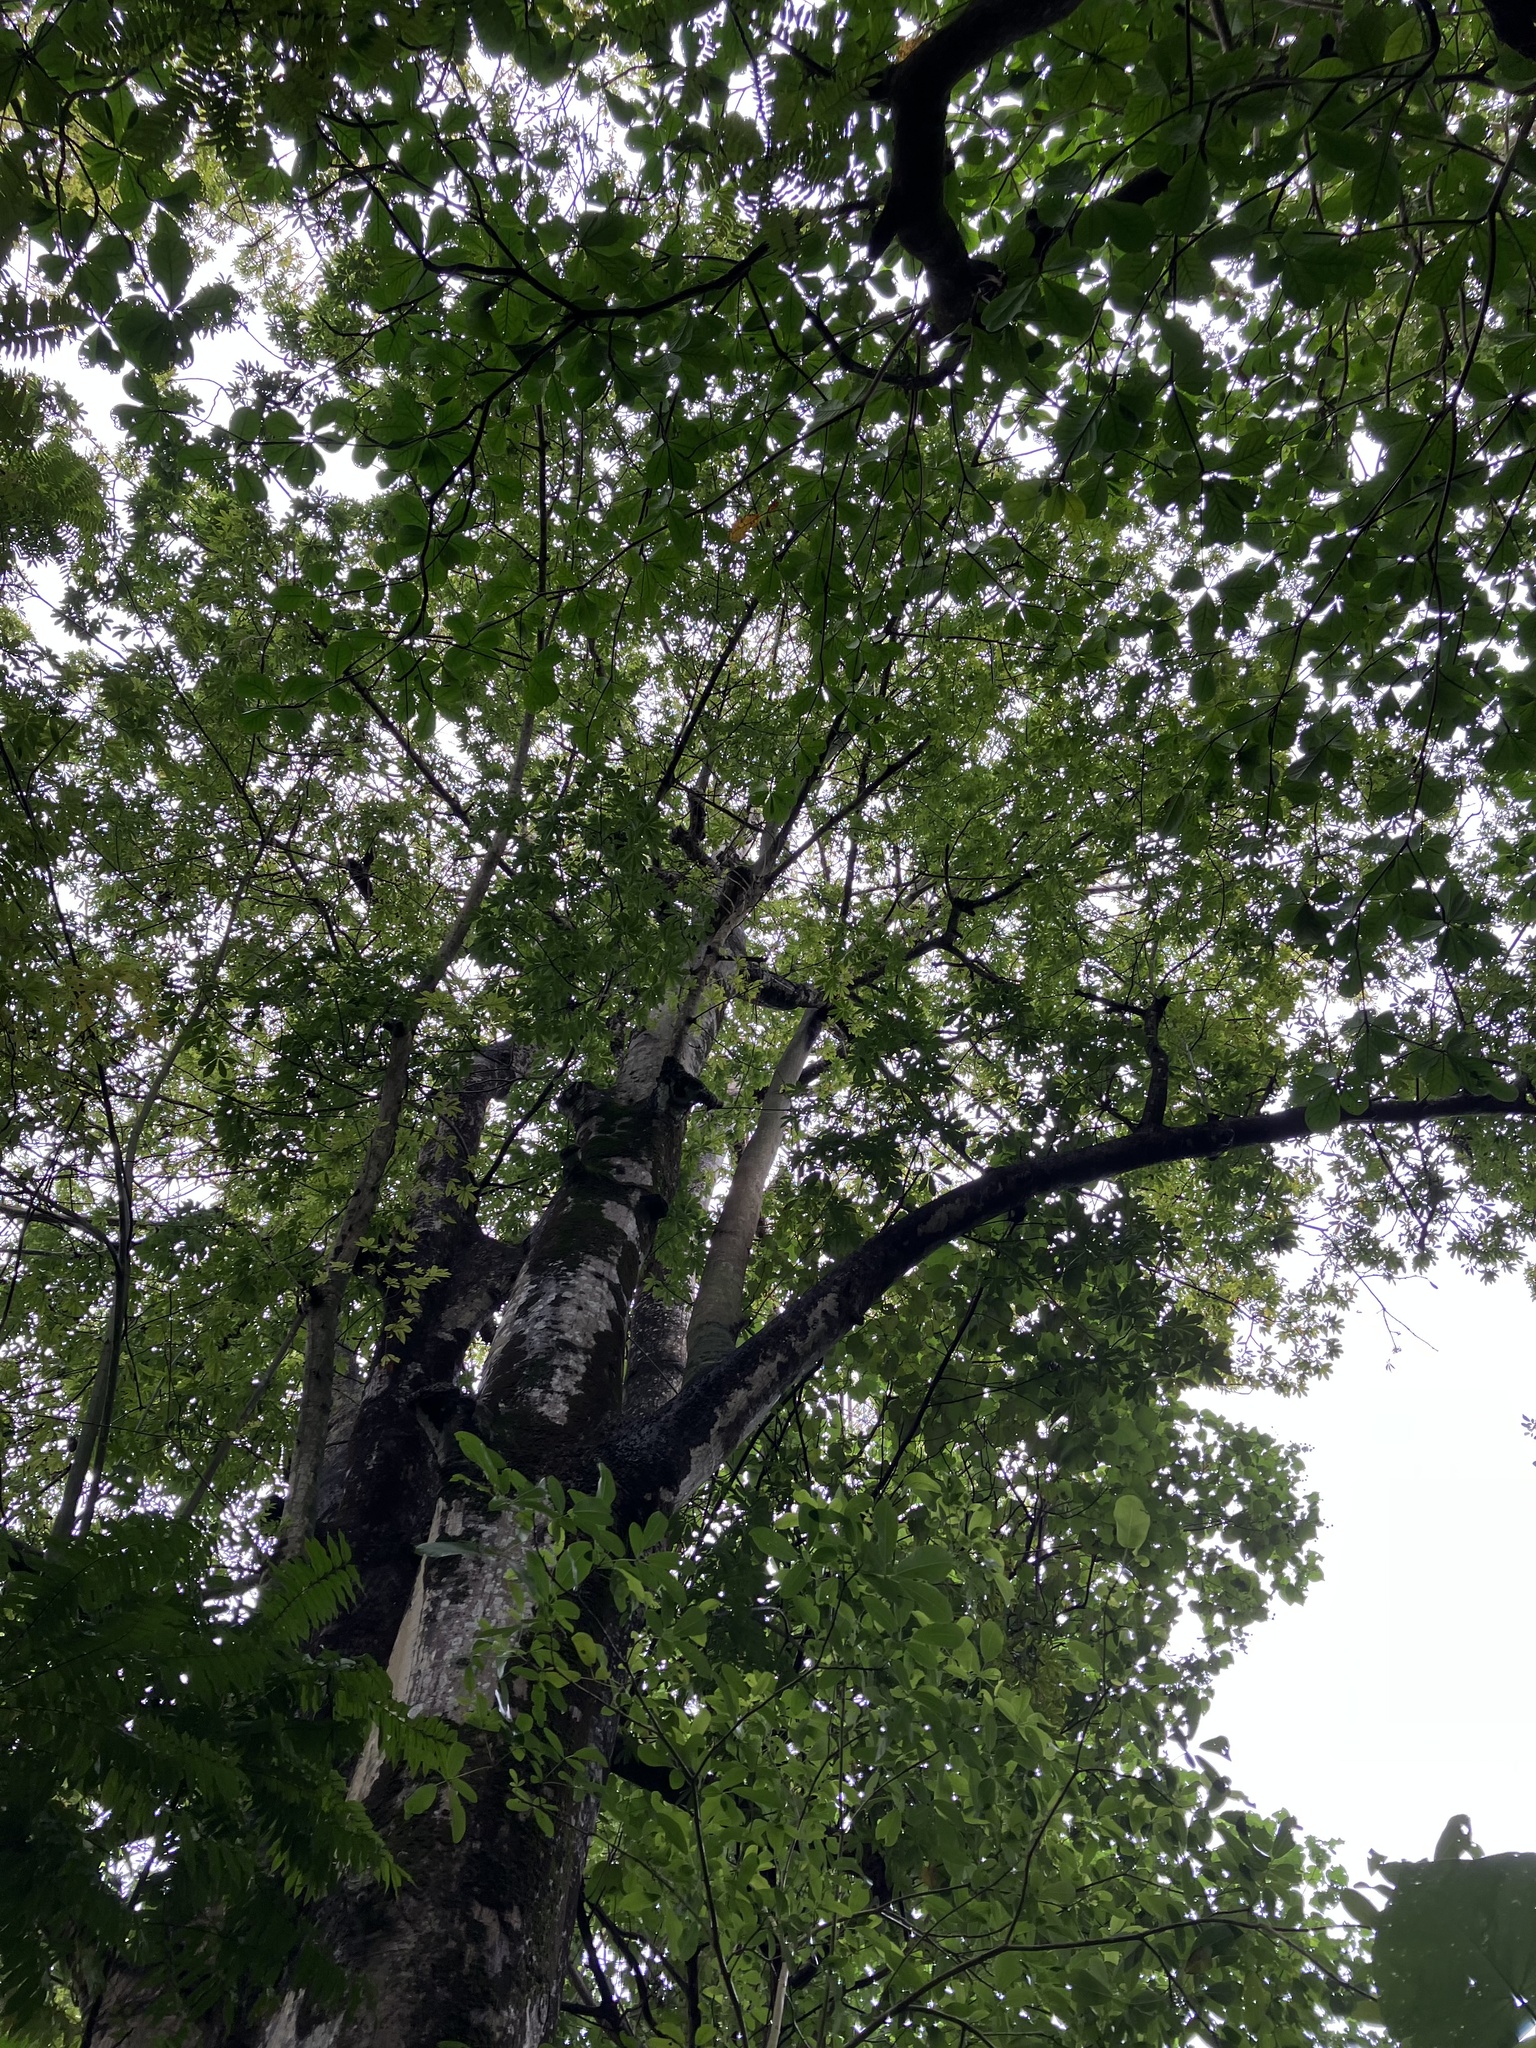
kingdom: Plantae
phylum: Tracheophyta
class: Magnoliopsida
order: Malvales
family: Malvaceae
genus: Ceiba
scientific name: Ceiba pentandra
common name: Kapok
